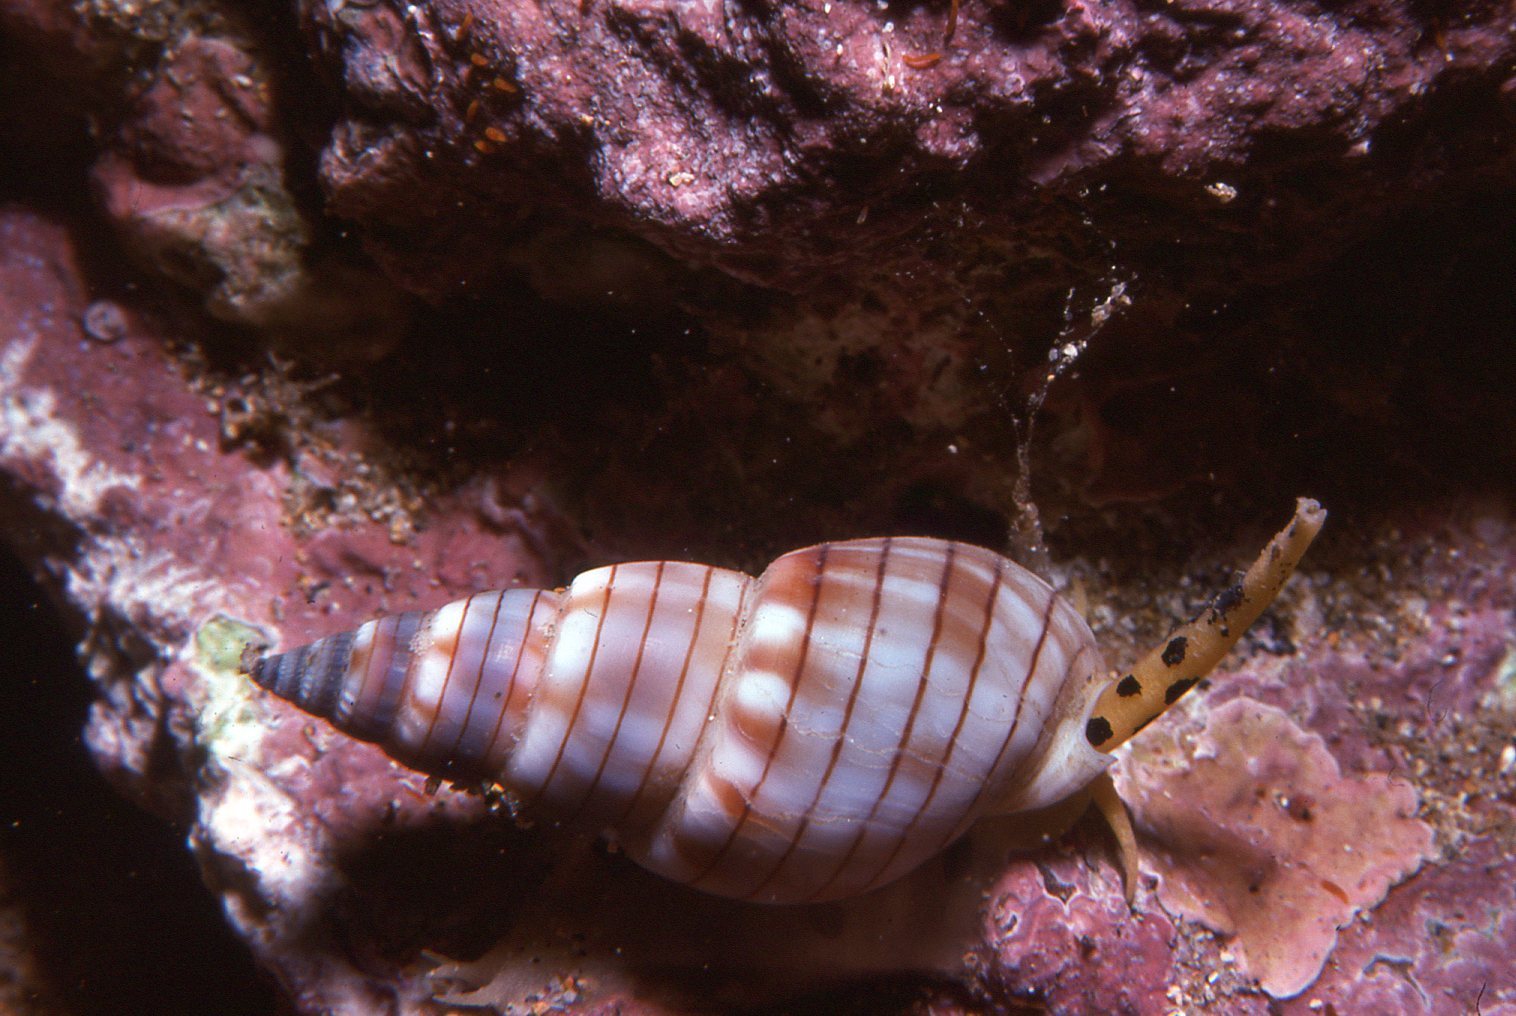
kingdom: Animalia
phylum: Mollusca
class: Gastropoda
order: Neogastropoda
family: Nassariidae
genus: Nassarius
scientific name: Nassarius particeps
